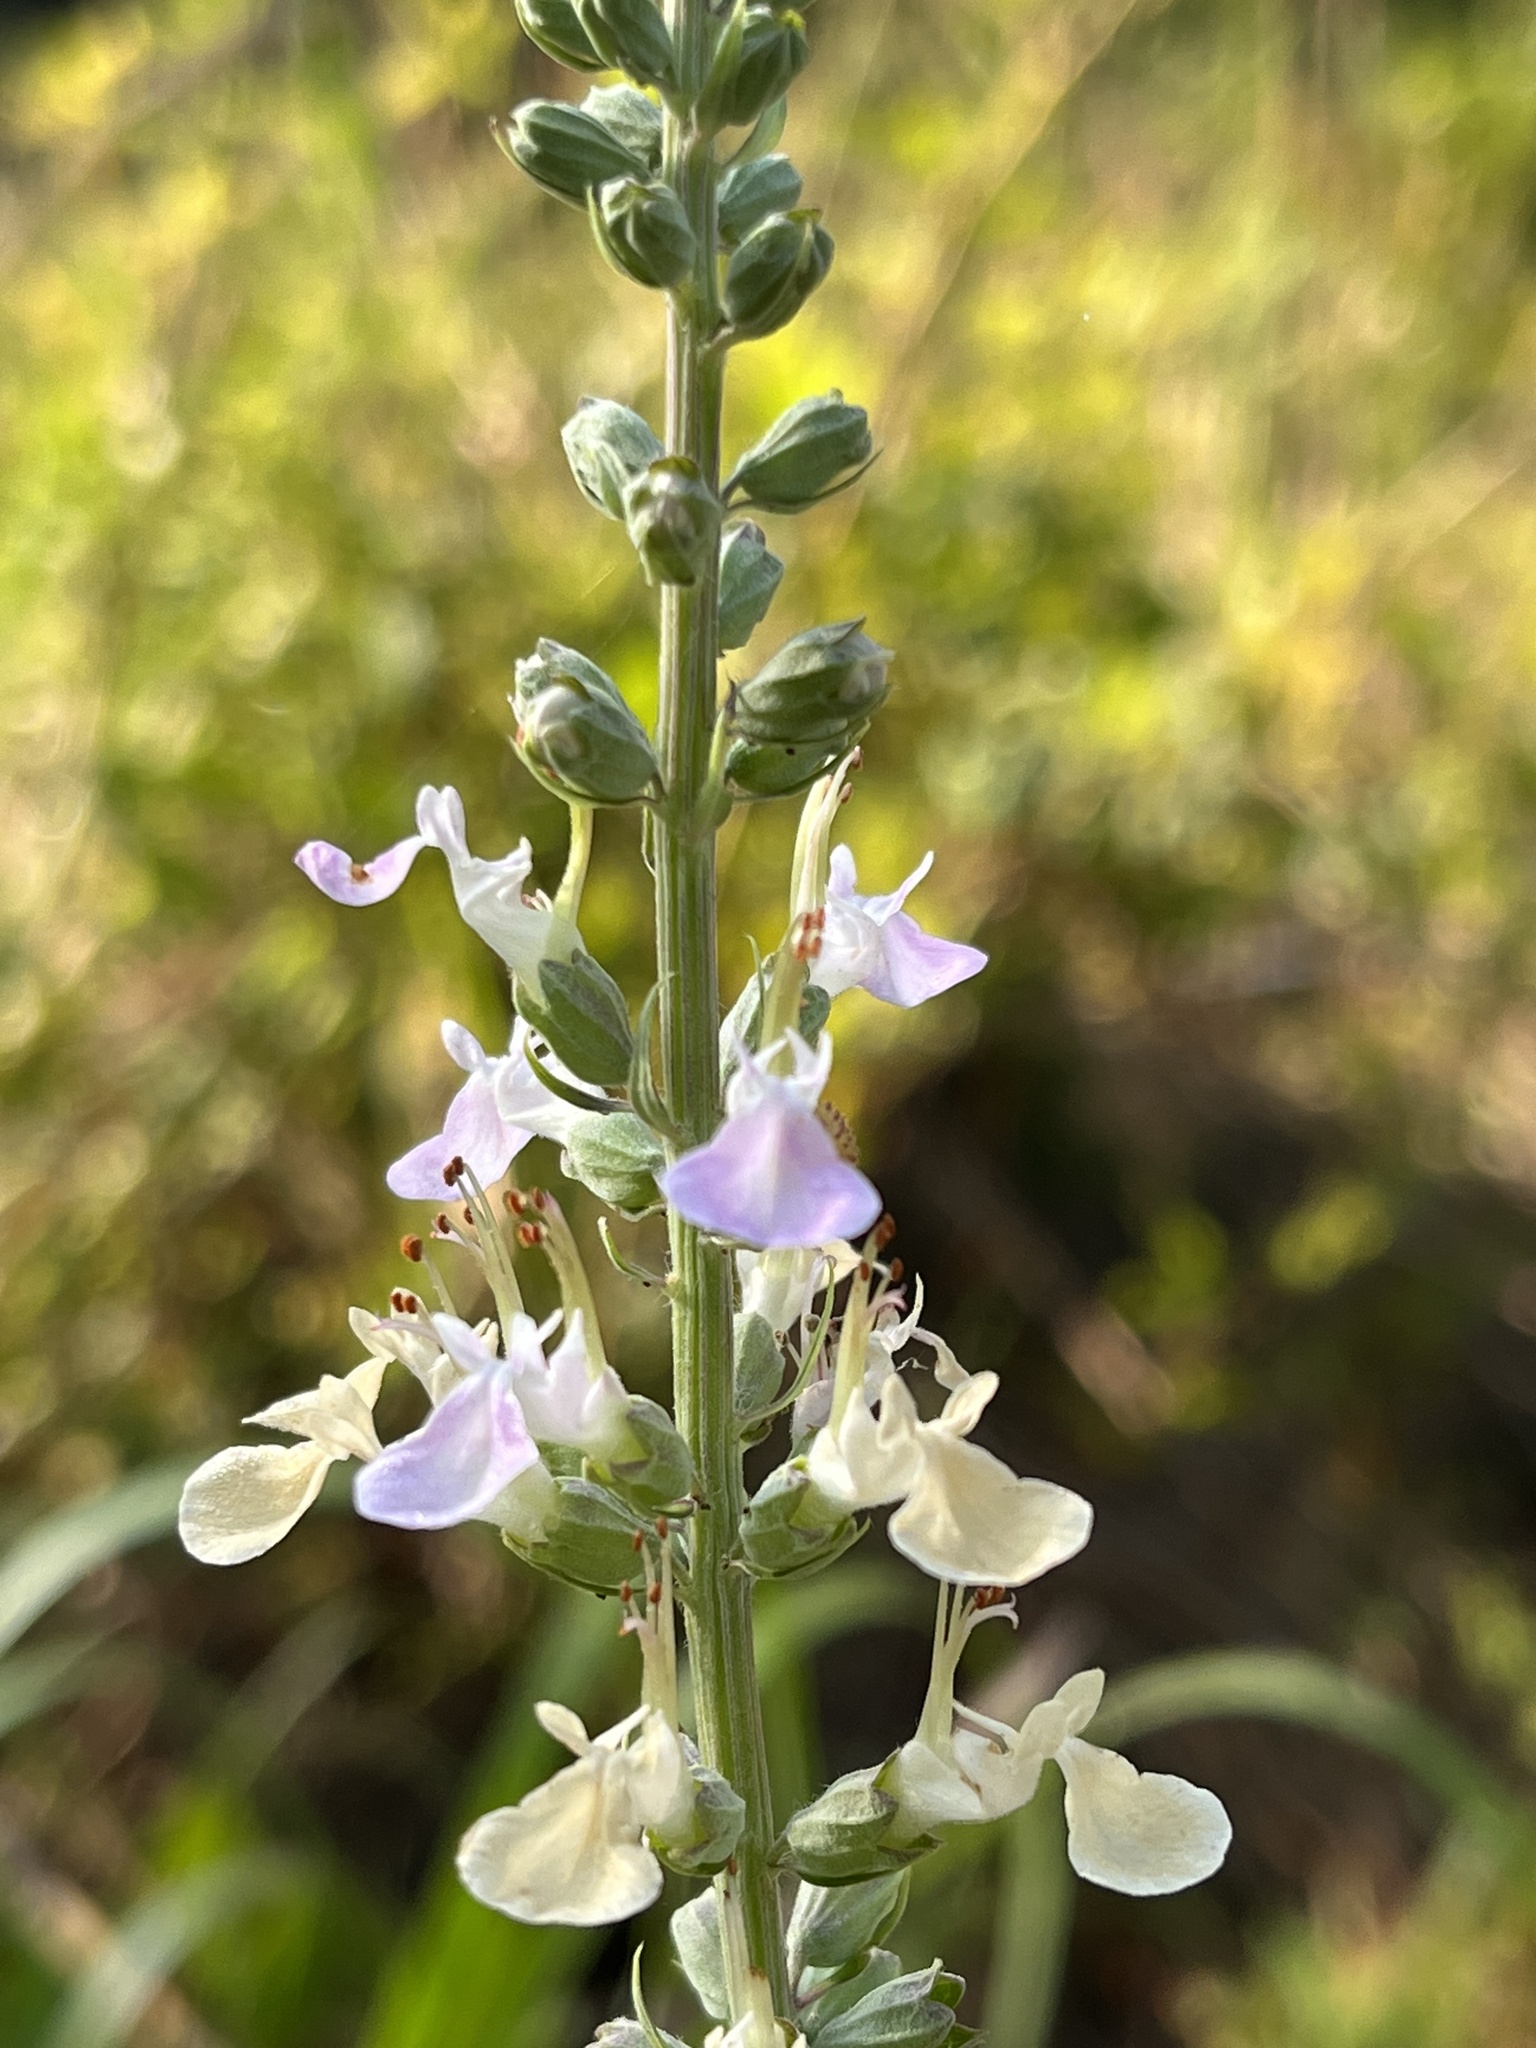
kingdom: Plantae
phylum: Tracheophyta
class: Magnoliopsida
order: Lamiales
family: Lamiaceae
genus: Teucrium
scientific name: Teucrium canadense
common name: American germander
